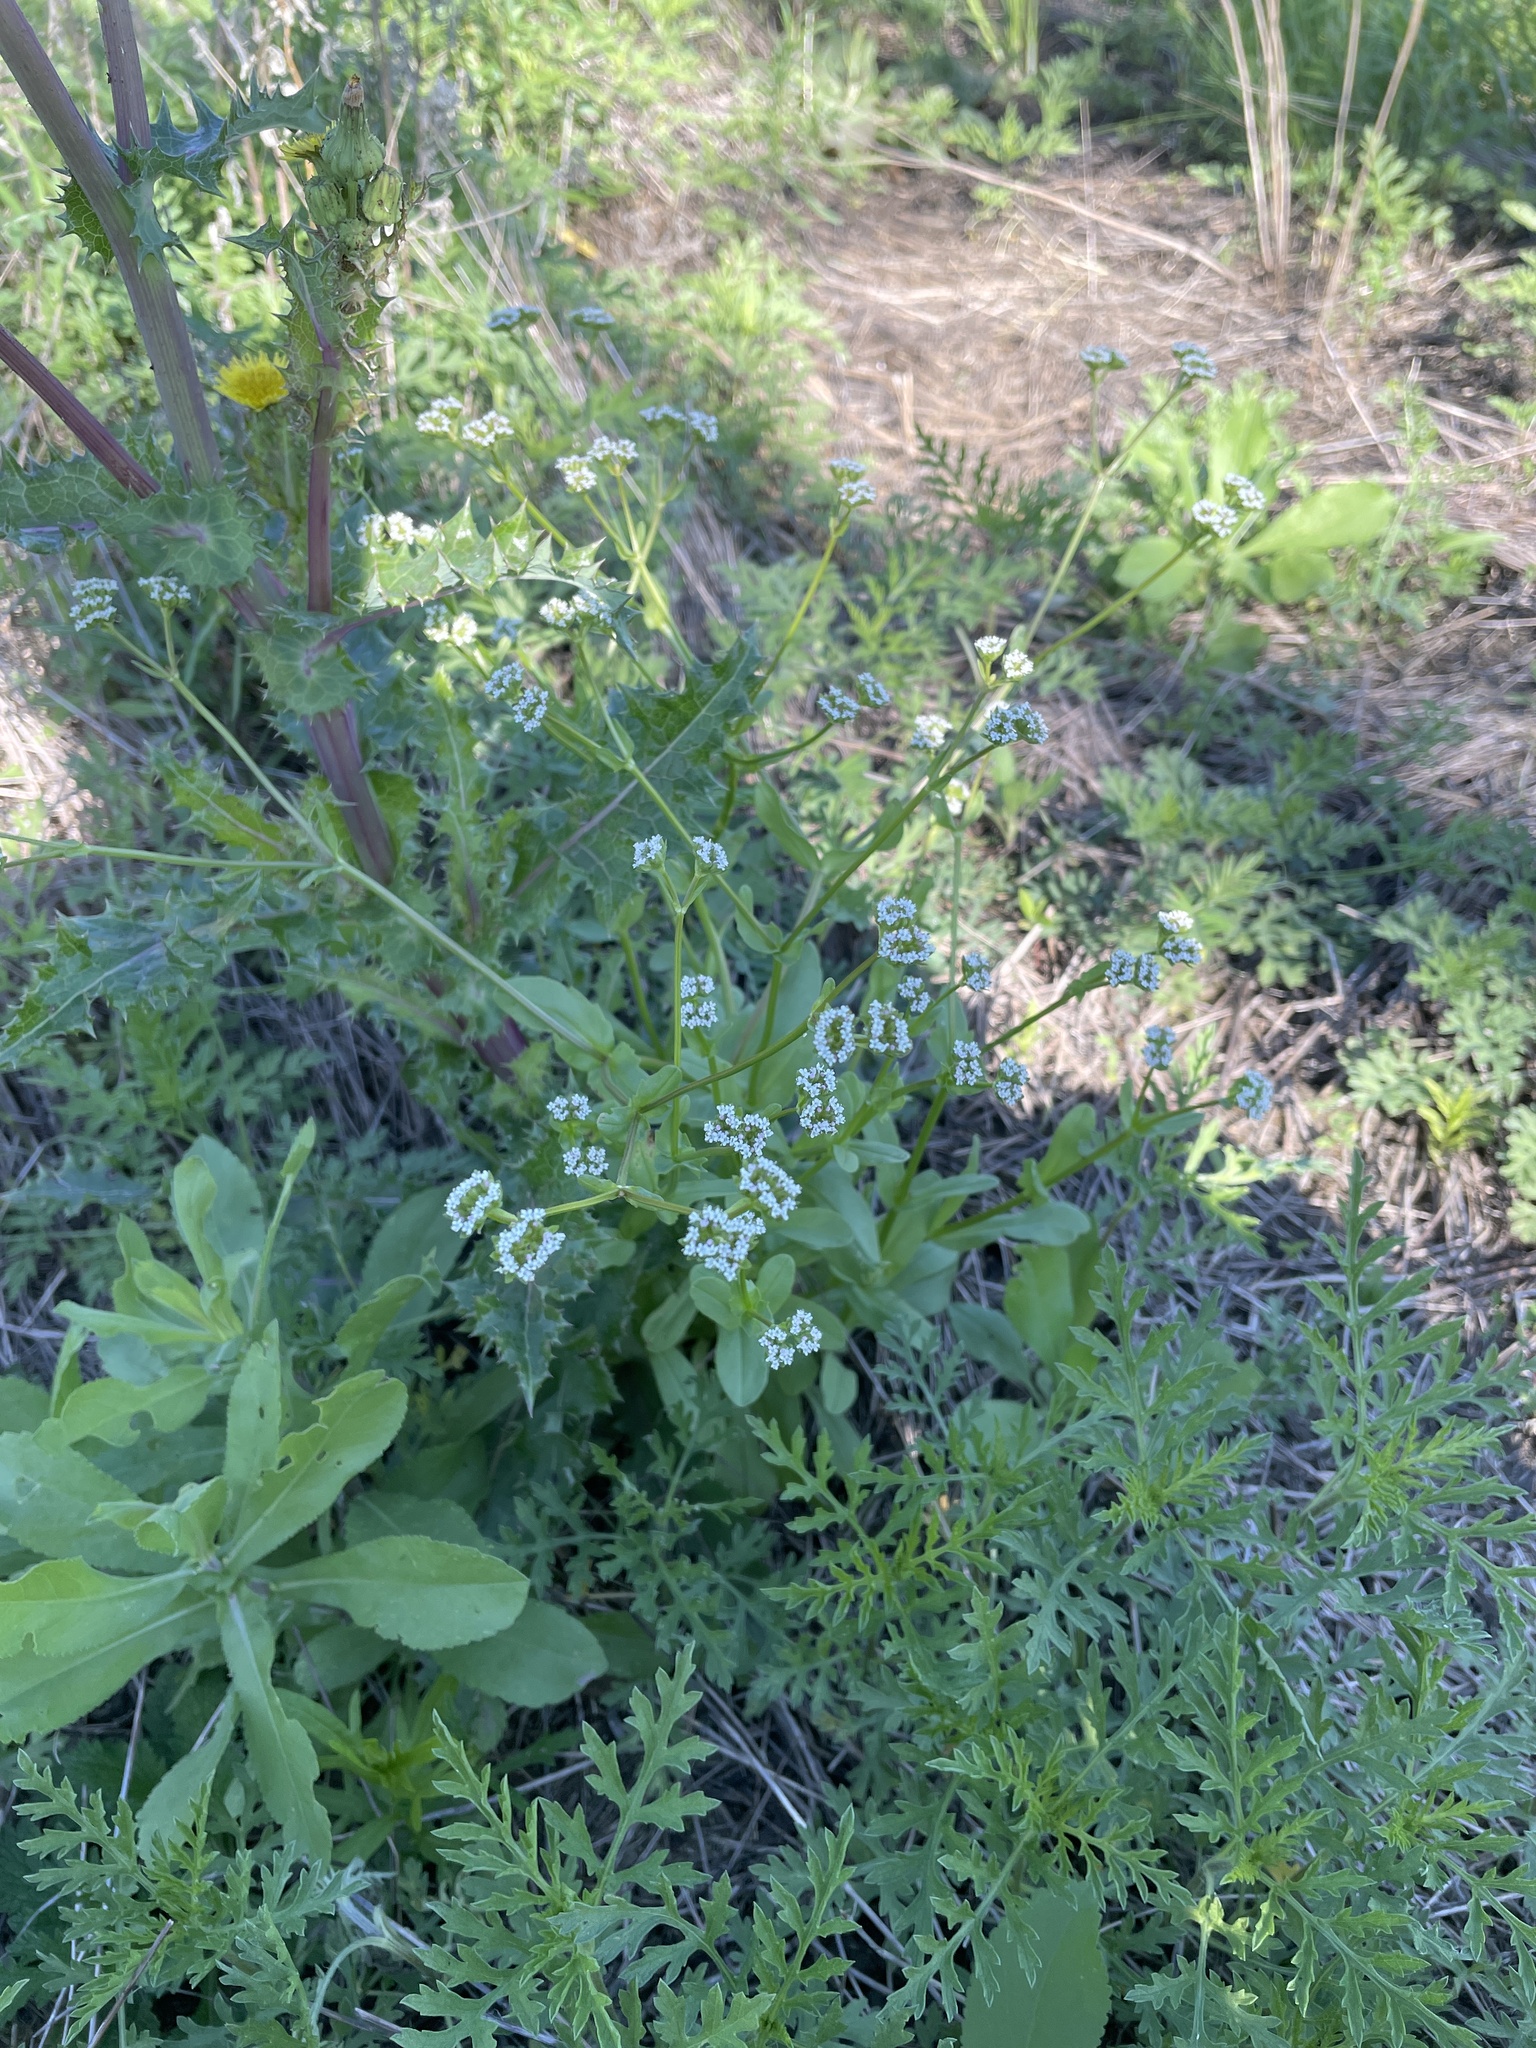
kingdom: Plantae
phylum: Tracheophyta
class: Magnoliopsida
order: Dipsacales
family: Caprifoliaceae
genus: Valerianella
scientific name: Valerianella radiata
